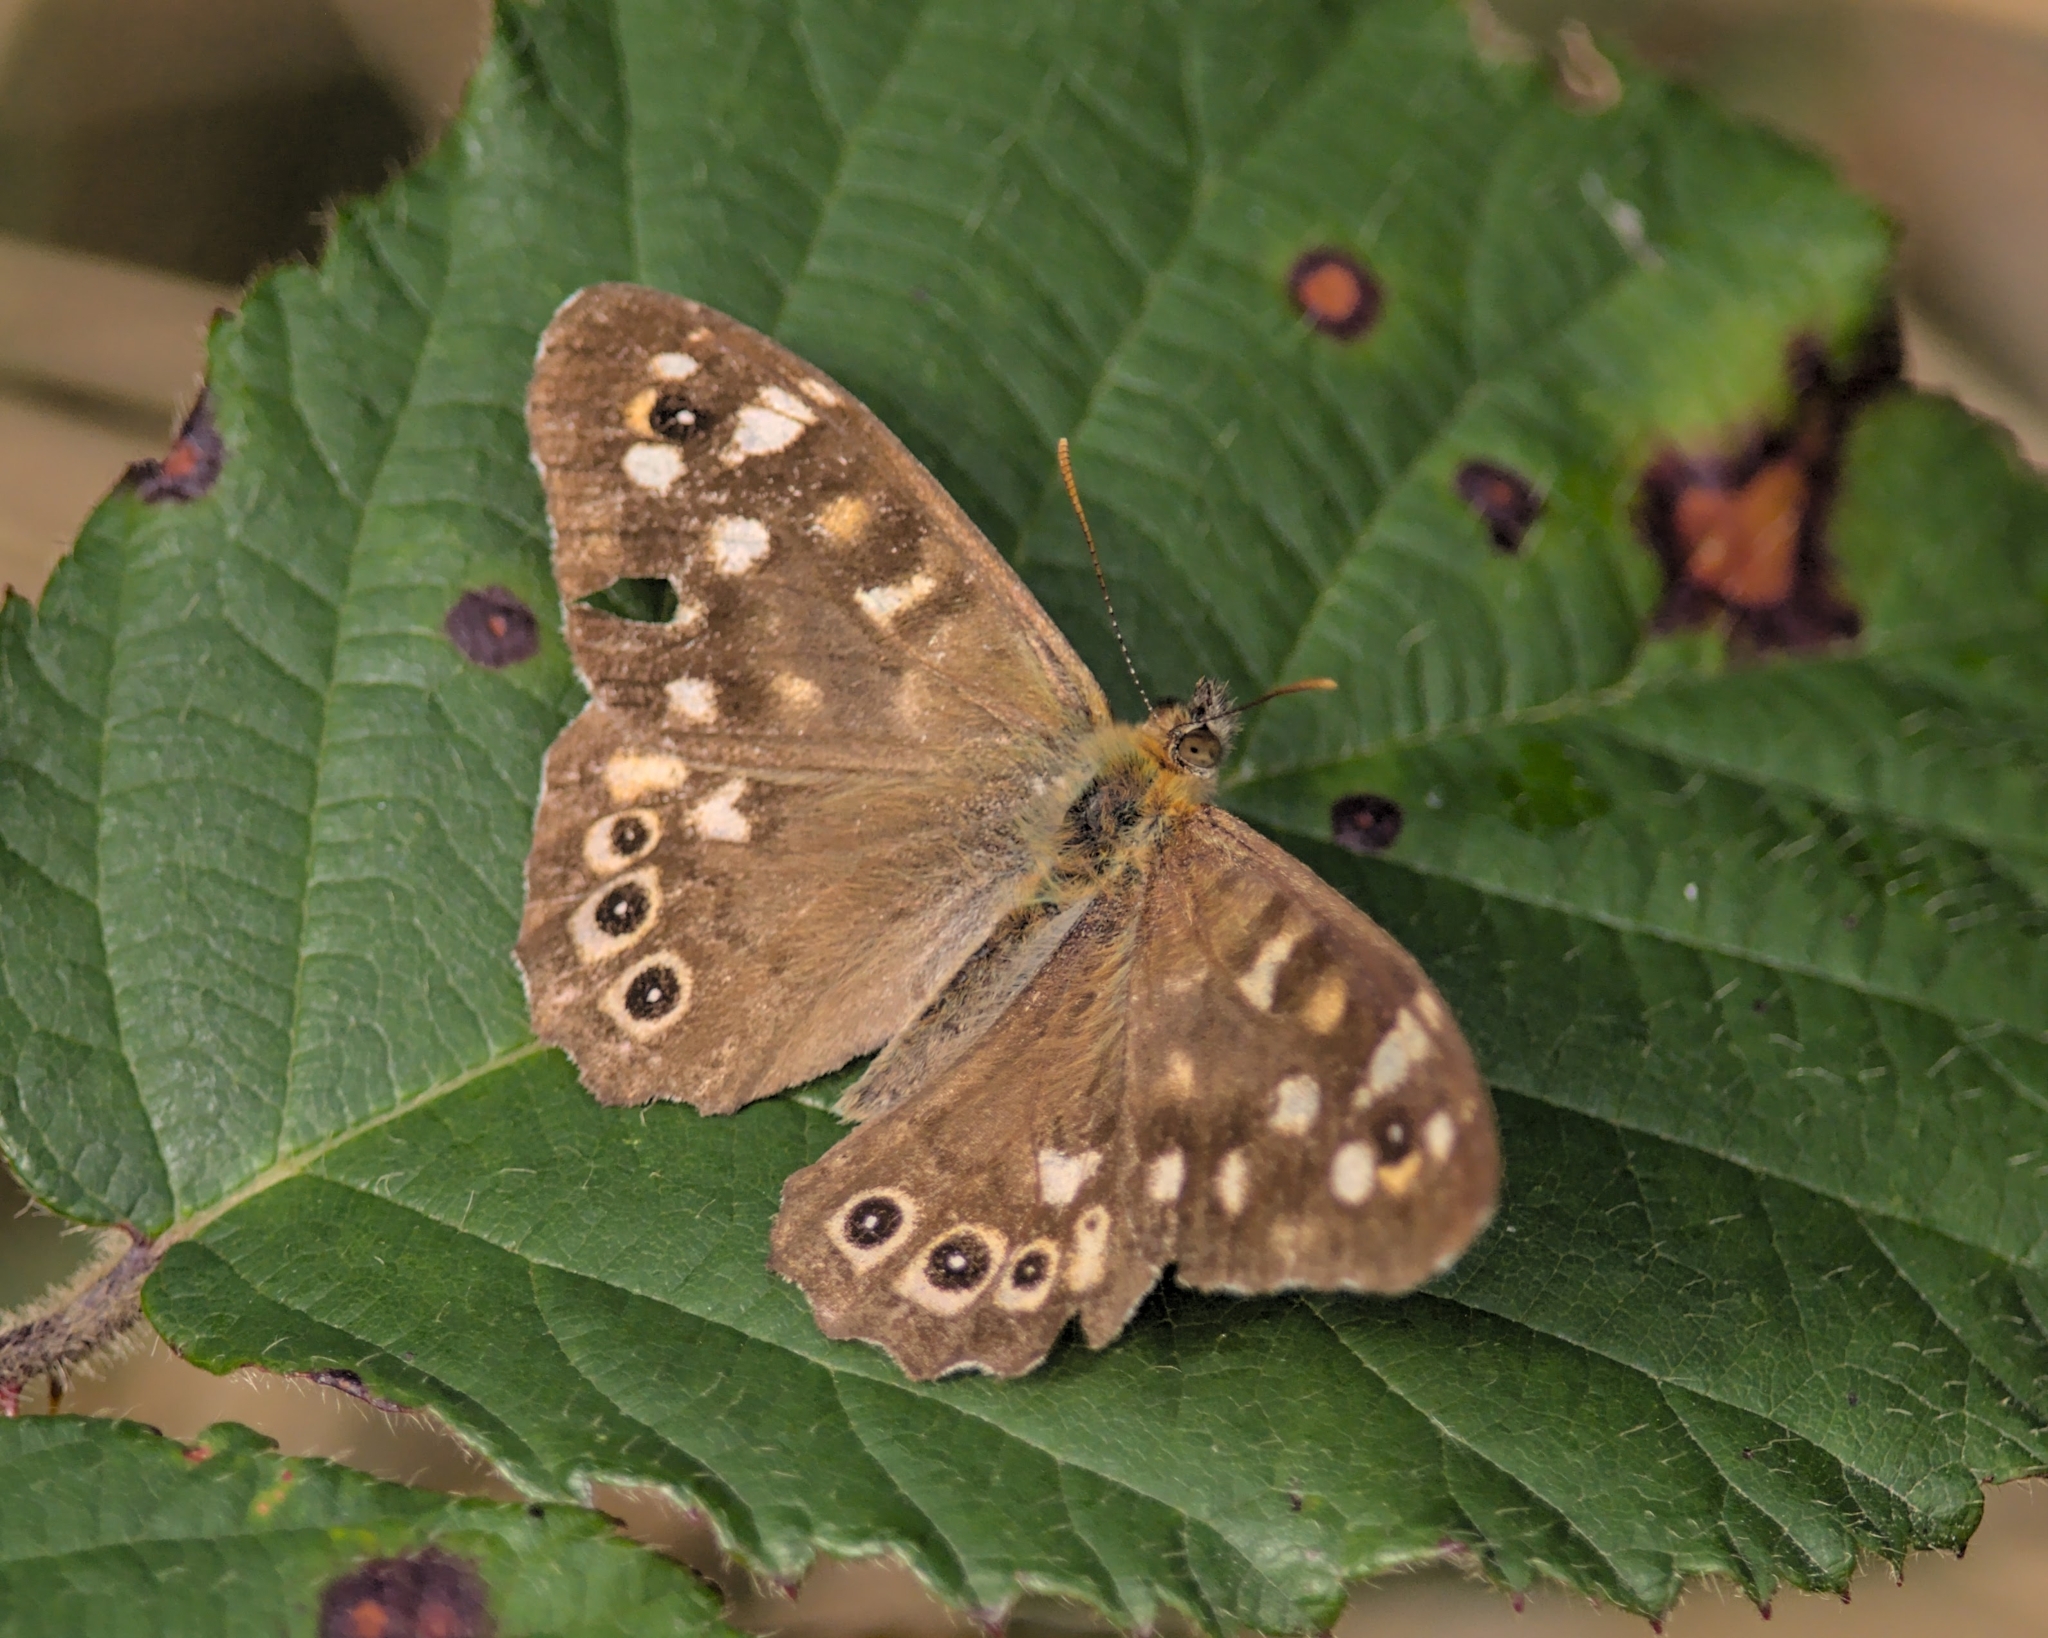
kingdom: Animalia
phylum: Arthropoda
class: Insecta
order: Lepidoptera
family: Nymphalidae
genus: Pararge
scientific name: Pararge aegeria
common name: Speckled wood
